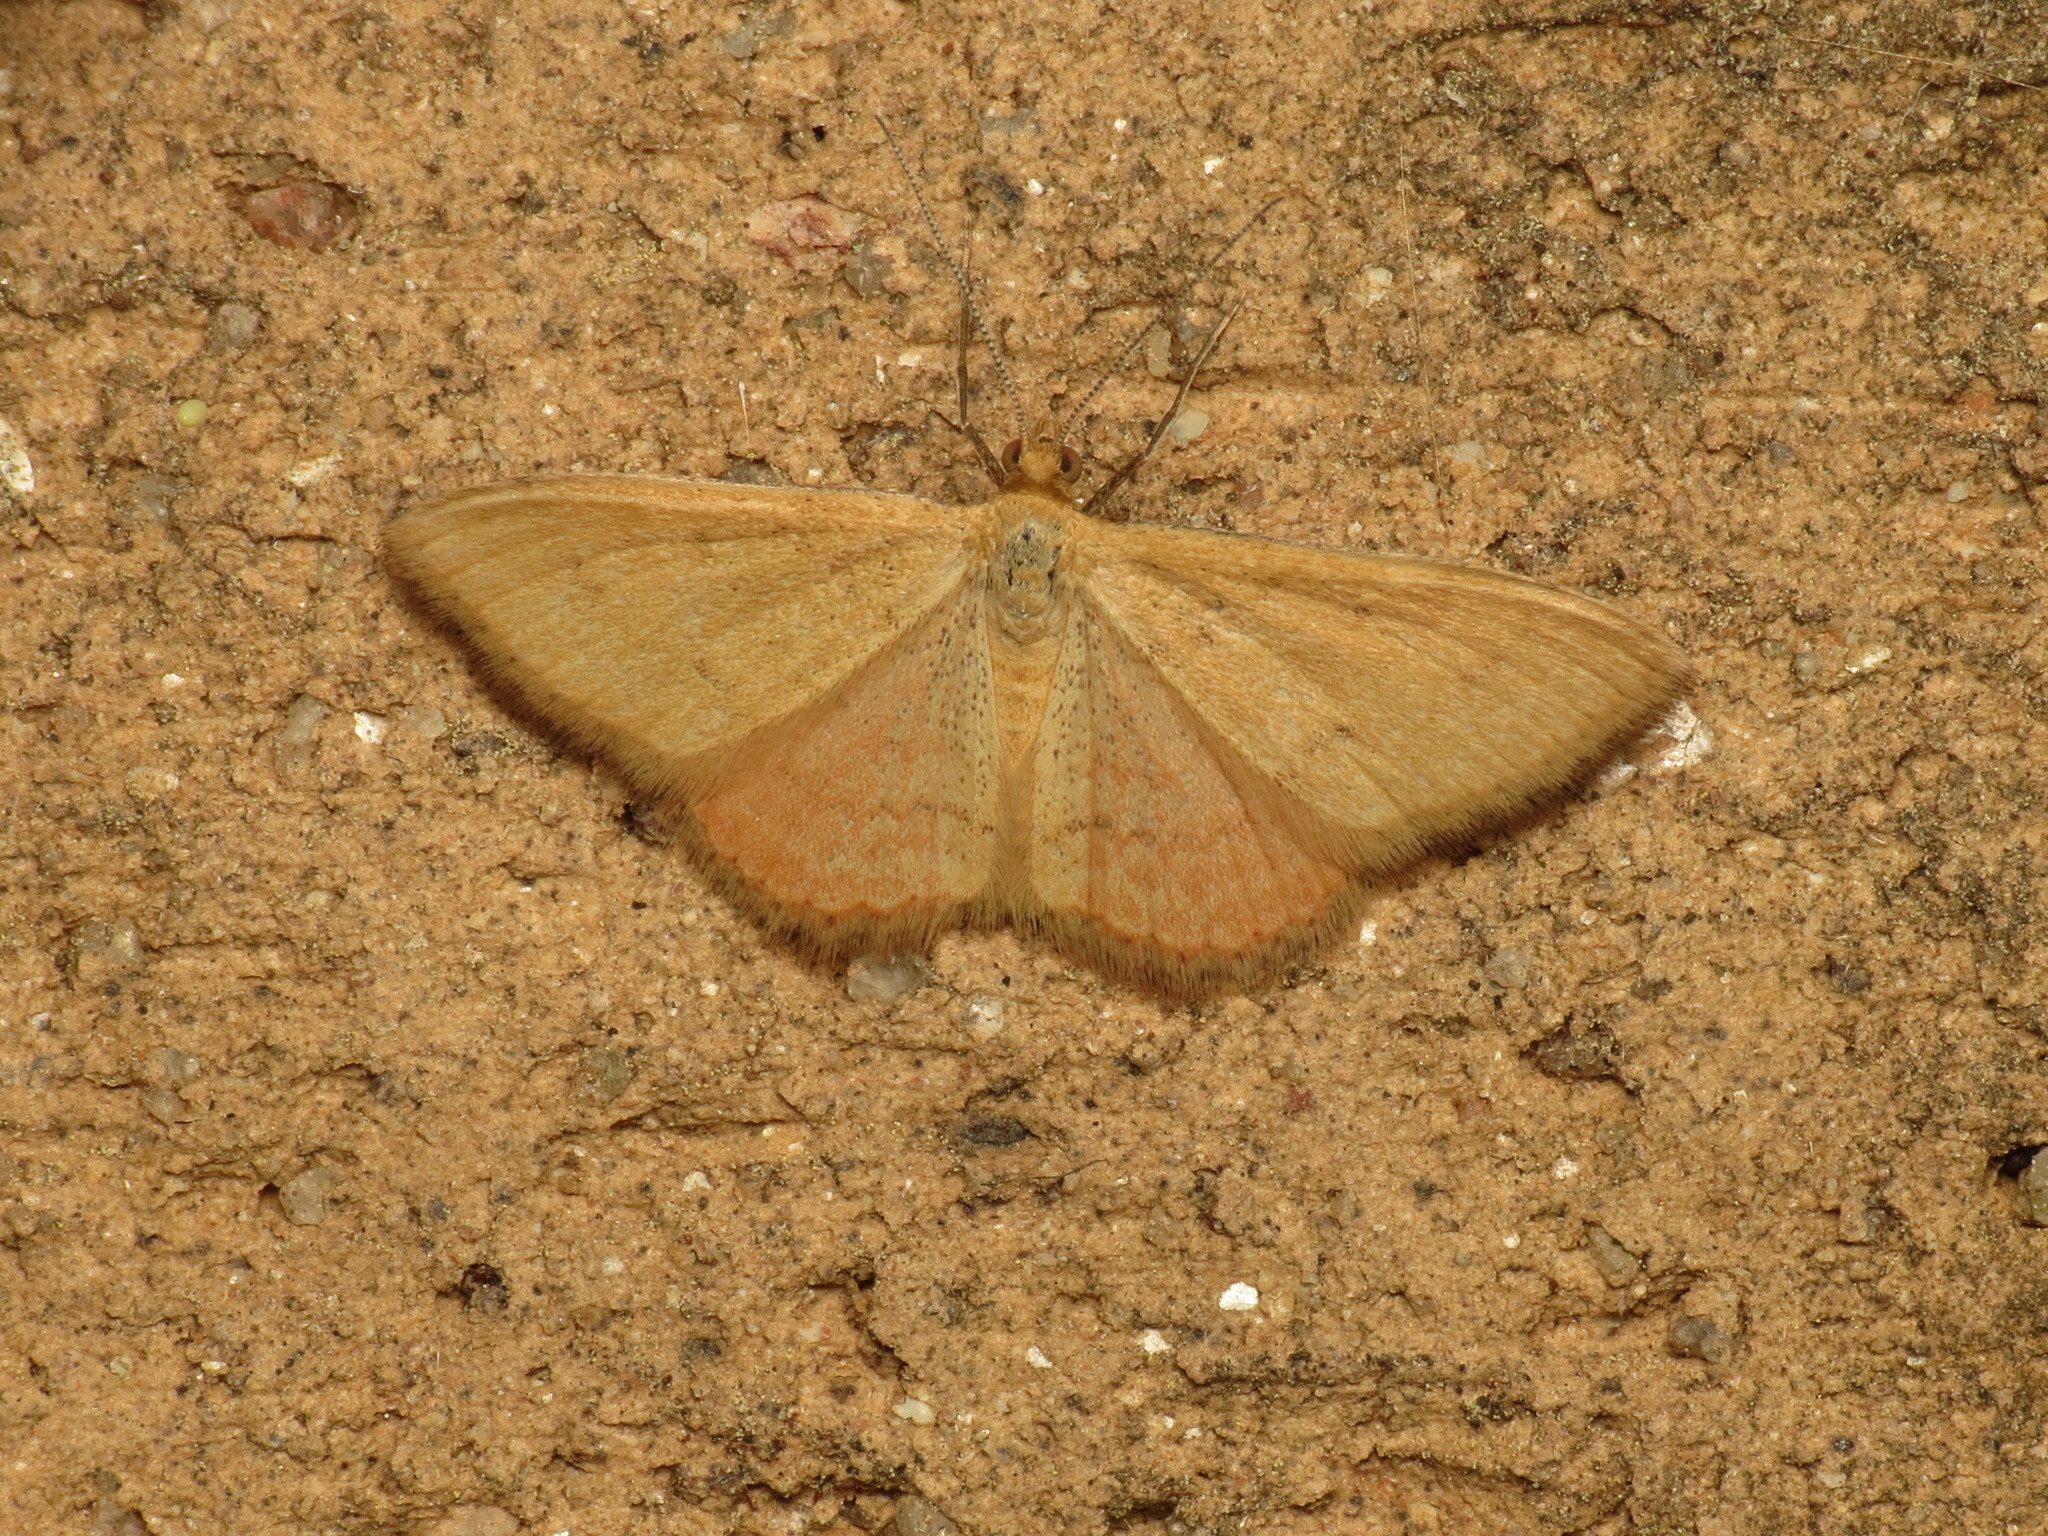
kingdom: Animalia
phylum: Arthropoda
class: Insecta
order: Lepidoptera
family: Geometridae
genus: Scopula
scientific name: Scopula rubraria
